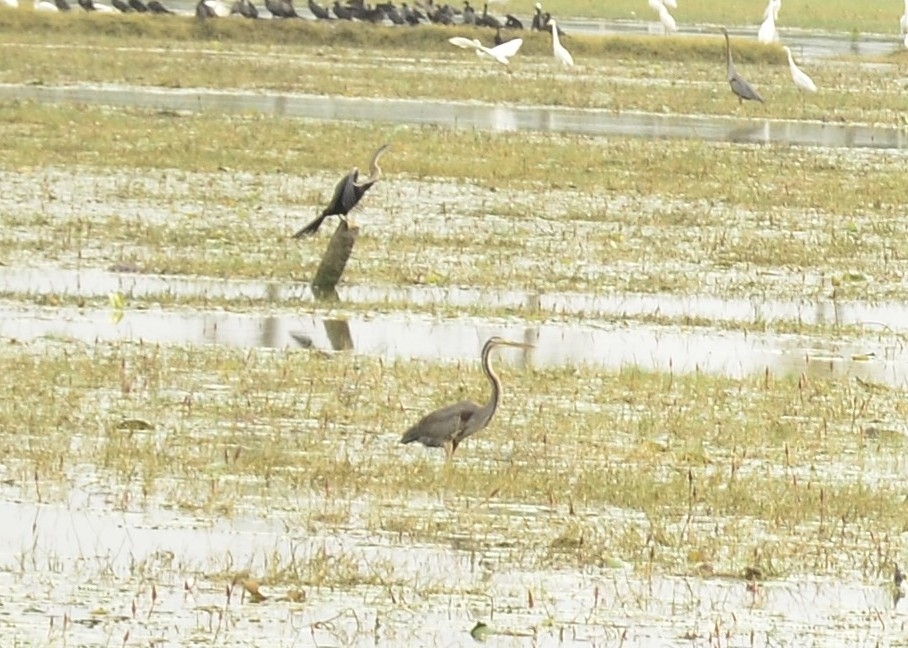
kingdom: Animalia
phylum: Chordata
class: Aves
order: Pelecaniformes
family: Ardeidae
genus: Ardea
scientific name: Ardea purpurea
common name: Purple heron
